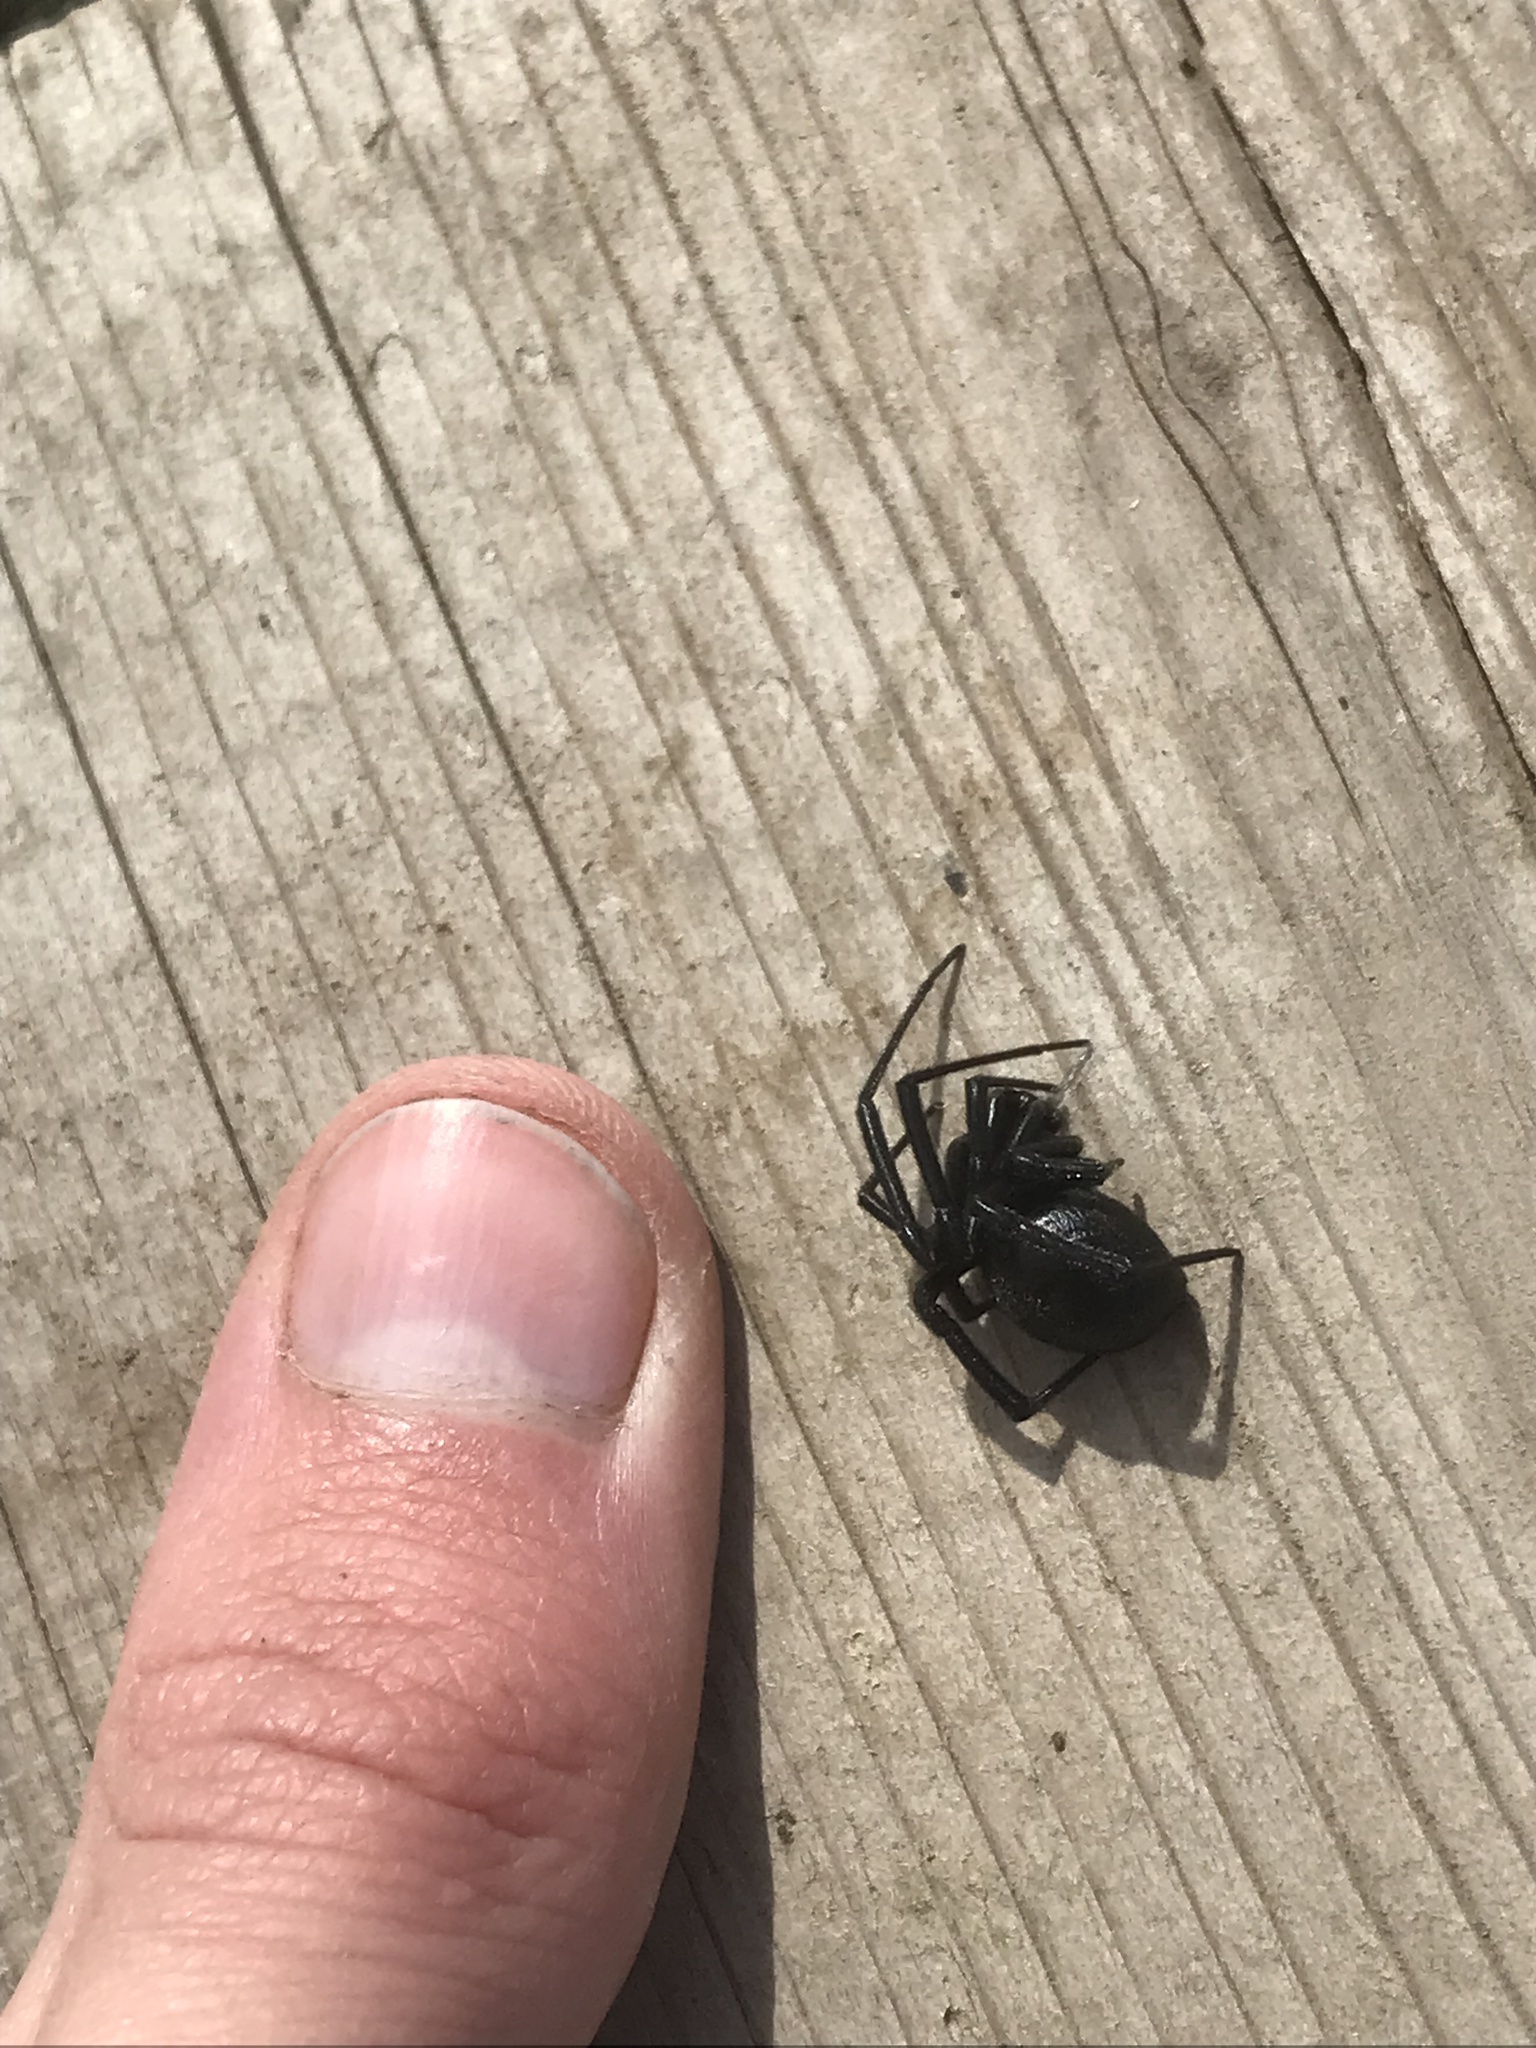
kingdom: Animalia
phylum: Arthropoda
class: Arachnida
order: Araneae
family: Theridiidae
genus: Latrodectus
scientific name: Latrodectus hesperus
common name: Western black widow
